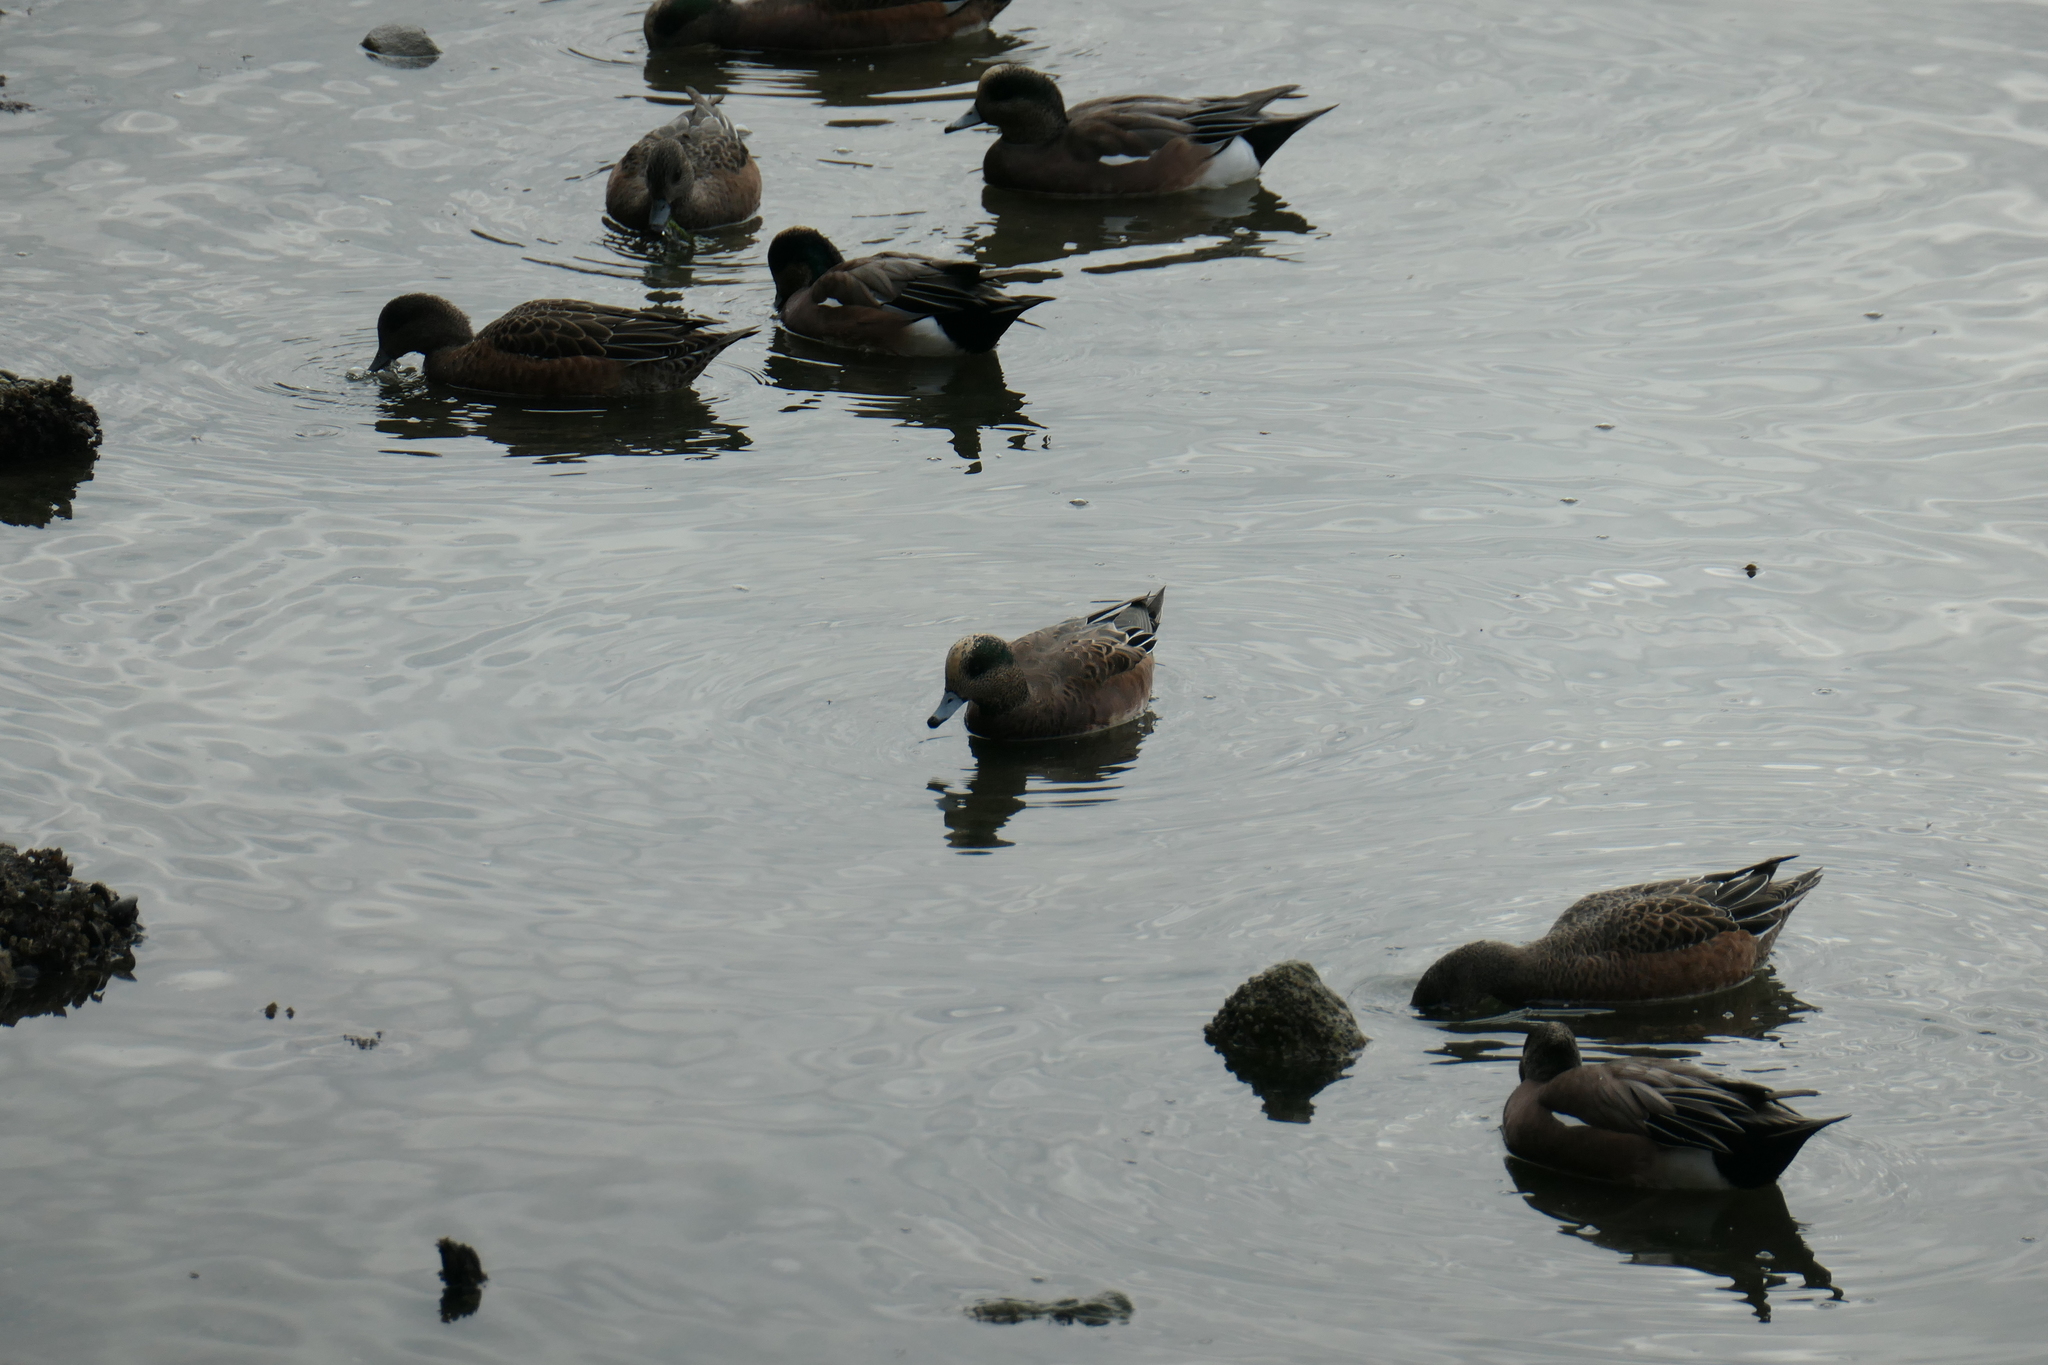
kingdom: Animalia
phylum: Chordata
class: Aves
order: Anseriformes
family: Anatidae
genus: Mareca
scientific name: Mareca americana
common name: American wigeon
